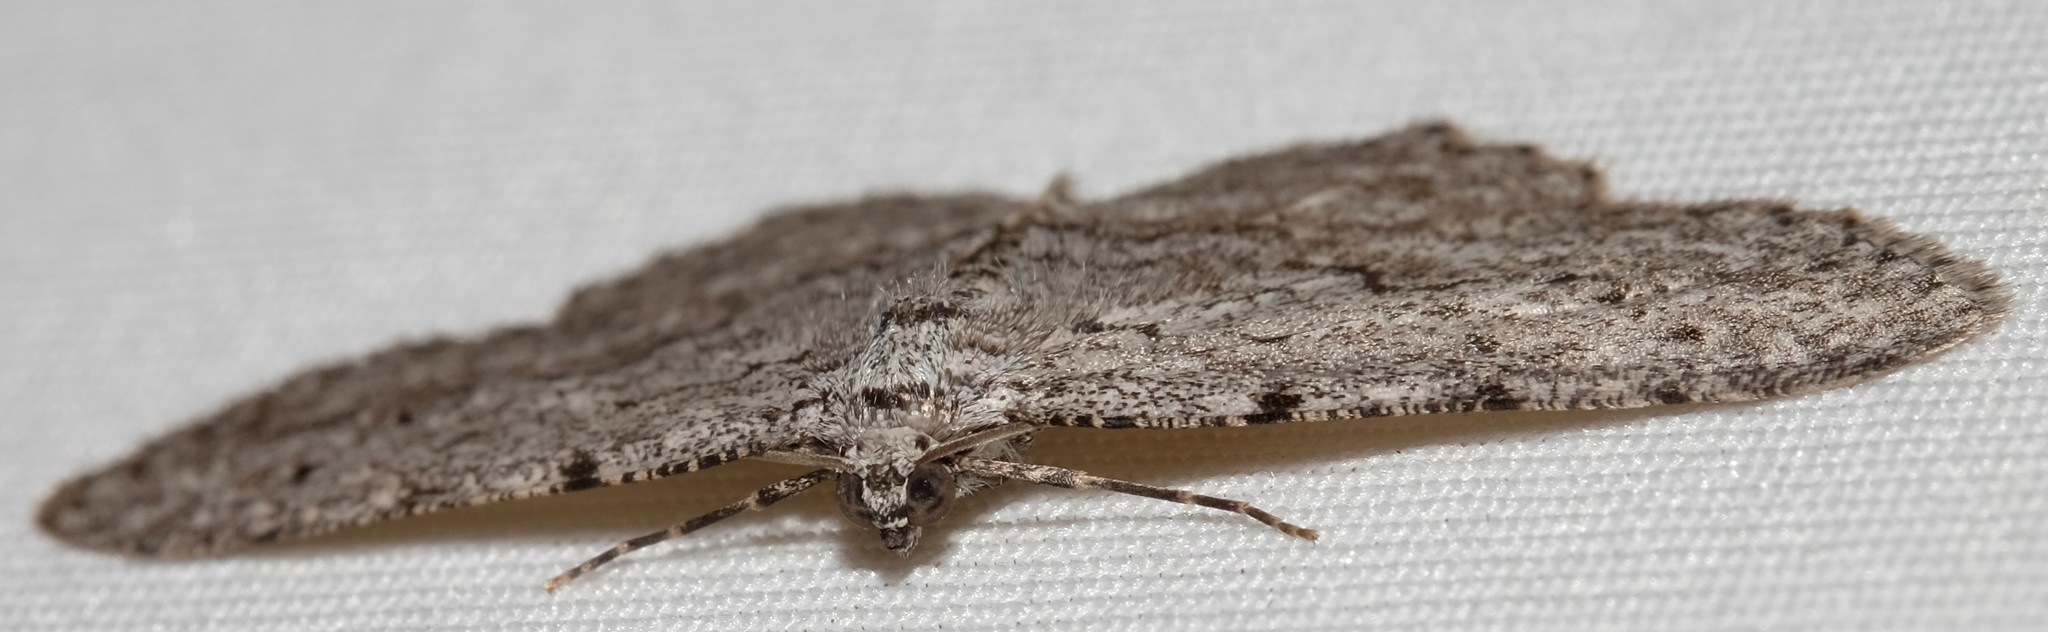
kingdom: Animalia
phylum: Arthropoda
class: Insecta
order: Lepidoptera
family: Geometridae
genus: Psilosticha
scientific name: Psilosticha absorpta
